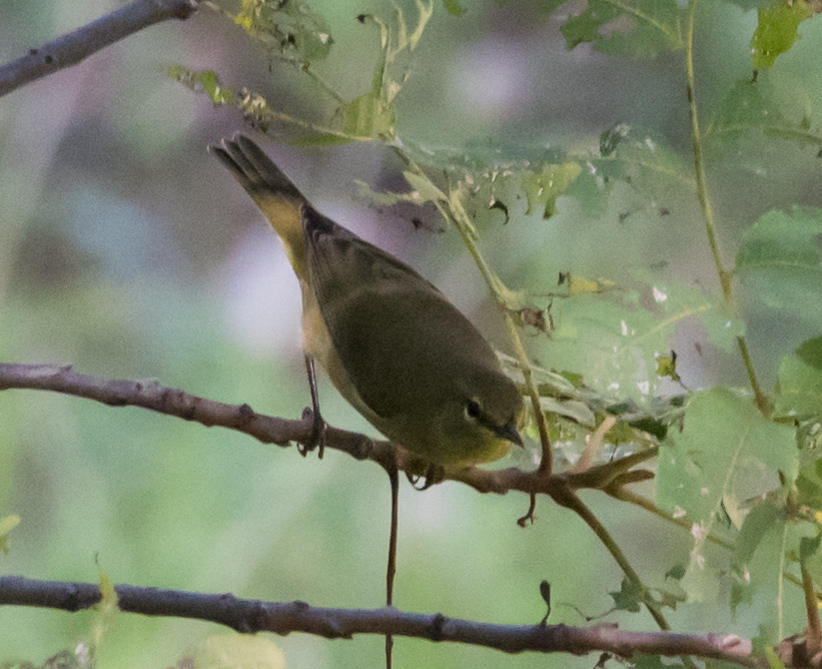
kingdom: Animalia
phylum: Chordata
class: Aves
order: Passeriformes
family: Parulidae
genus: Leiothlypis
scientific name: Leiothlypis celata
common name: Orange-crowned warbler
